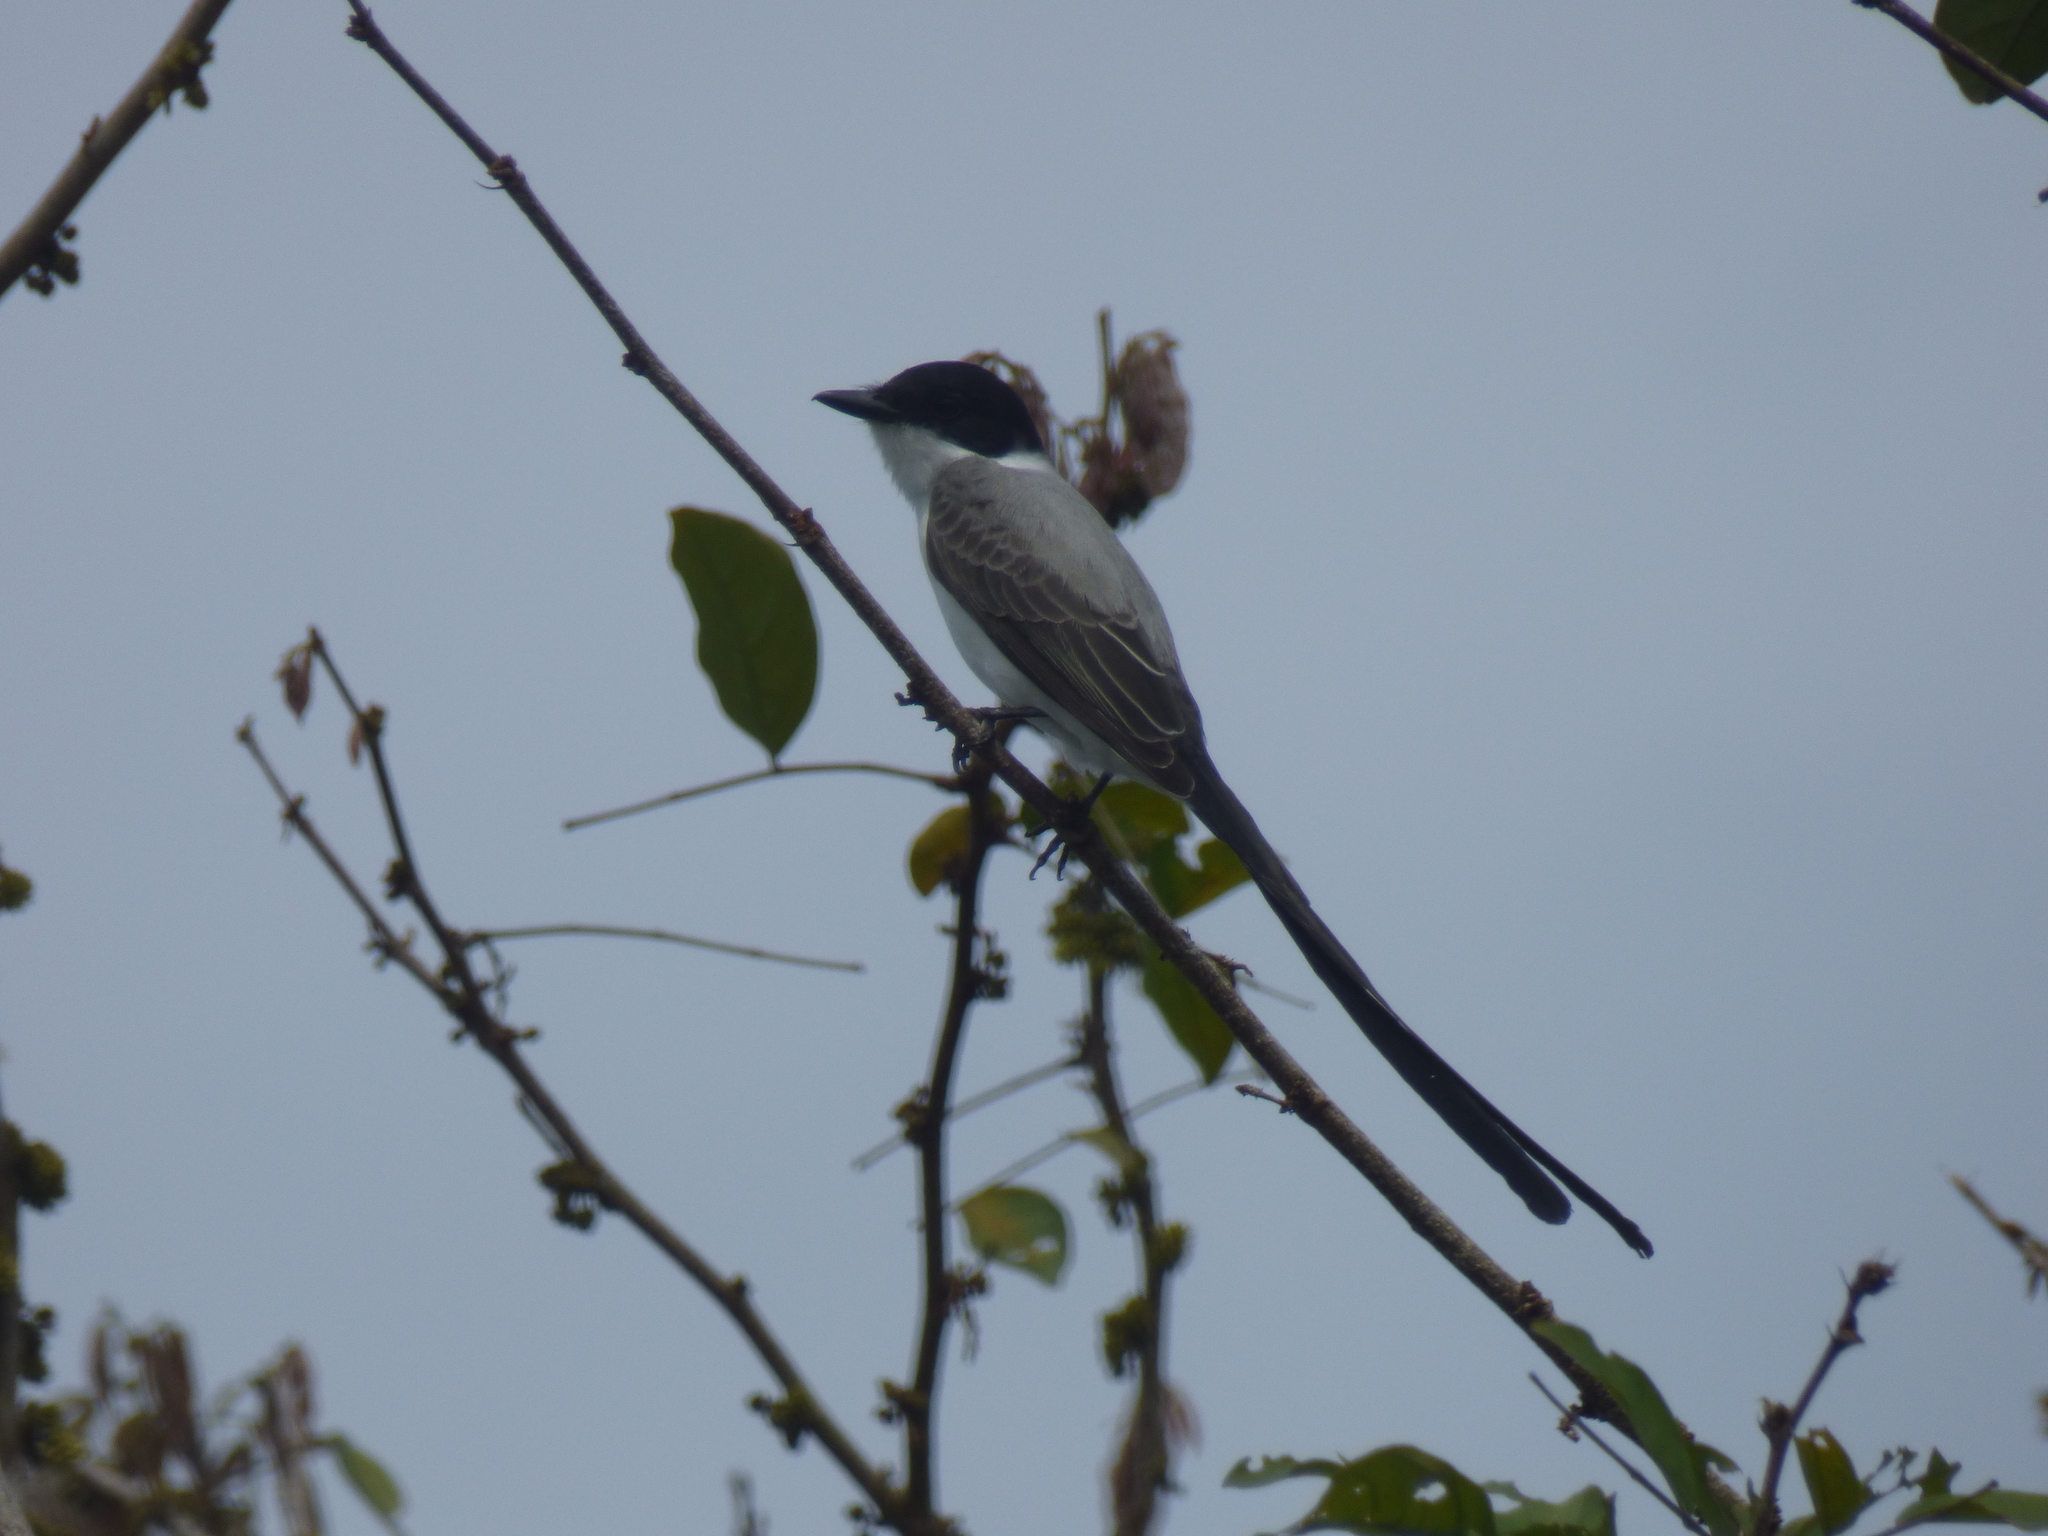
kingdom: Animalia
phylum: Chordata
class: Aves
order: Passeriformes
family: Tyrannidae
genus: Tyrannus
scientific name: Tyrannus savana
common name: Fork-tailed flycatcher
